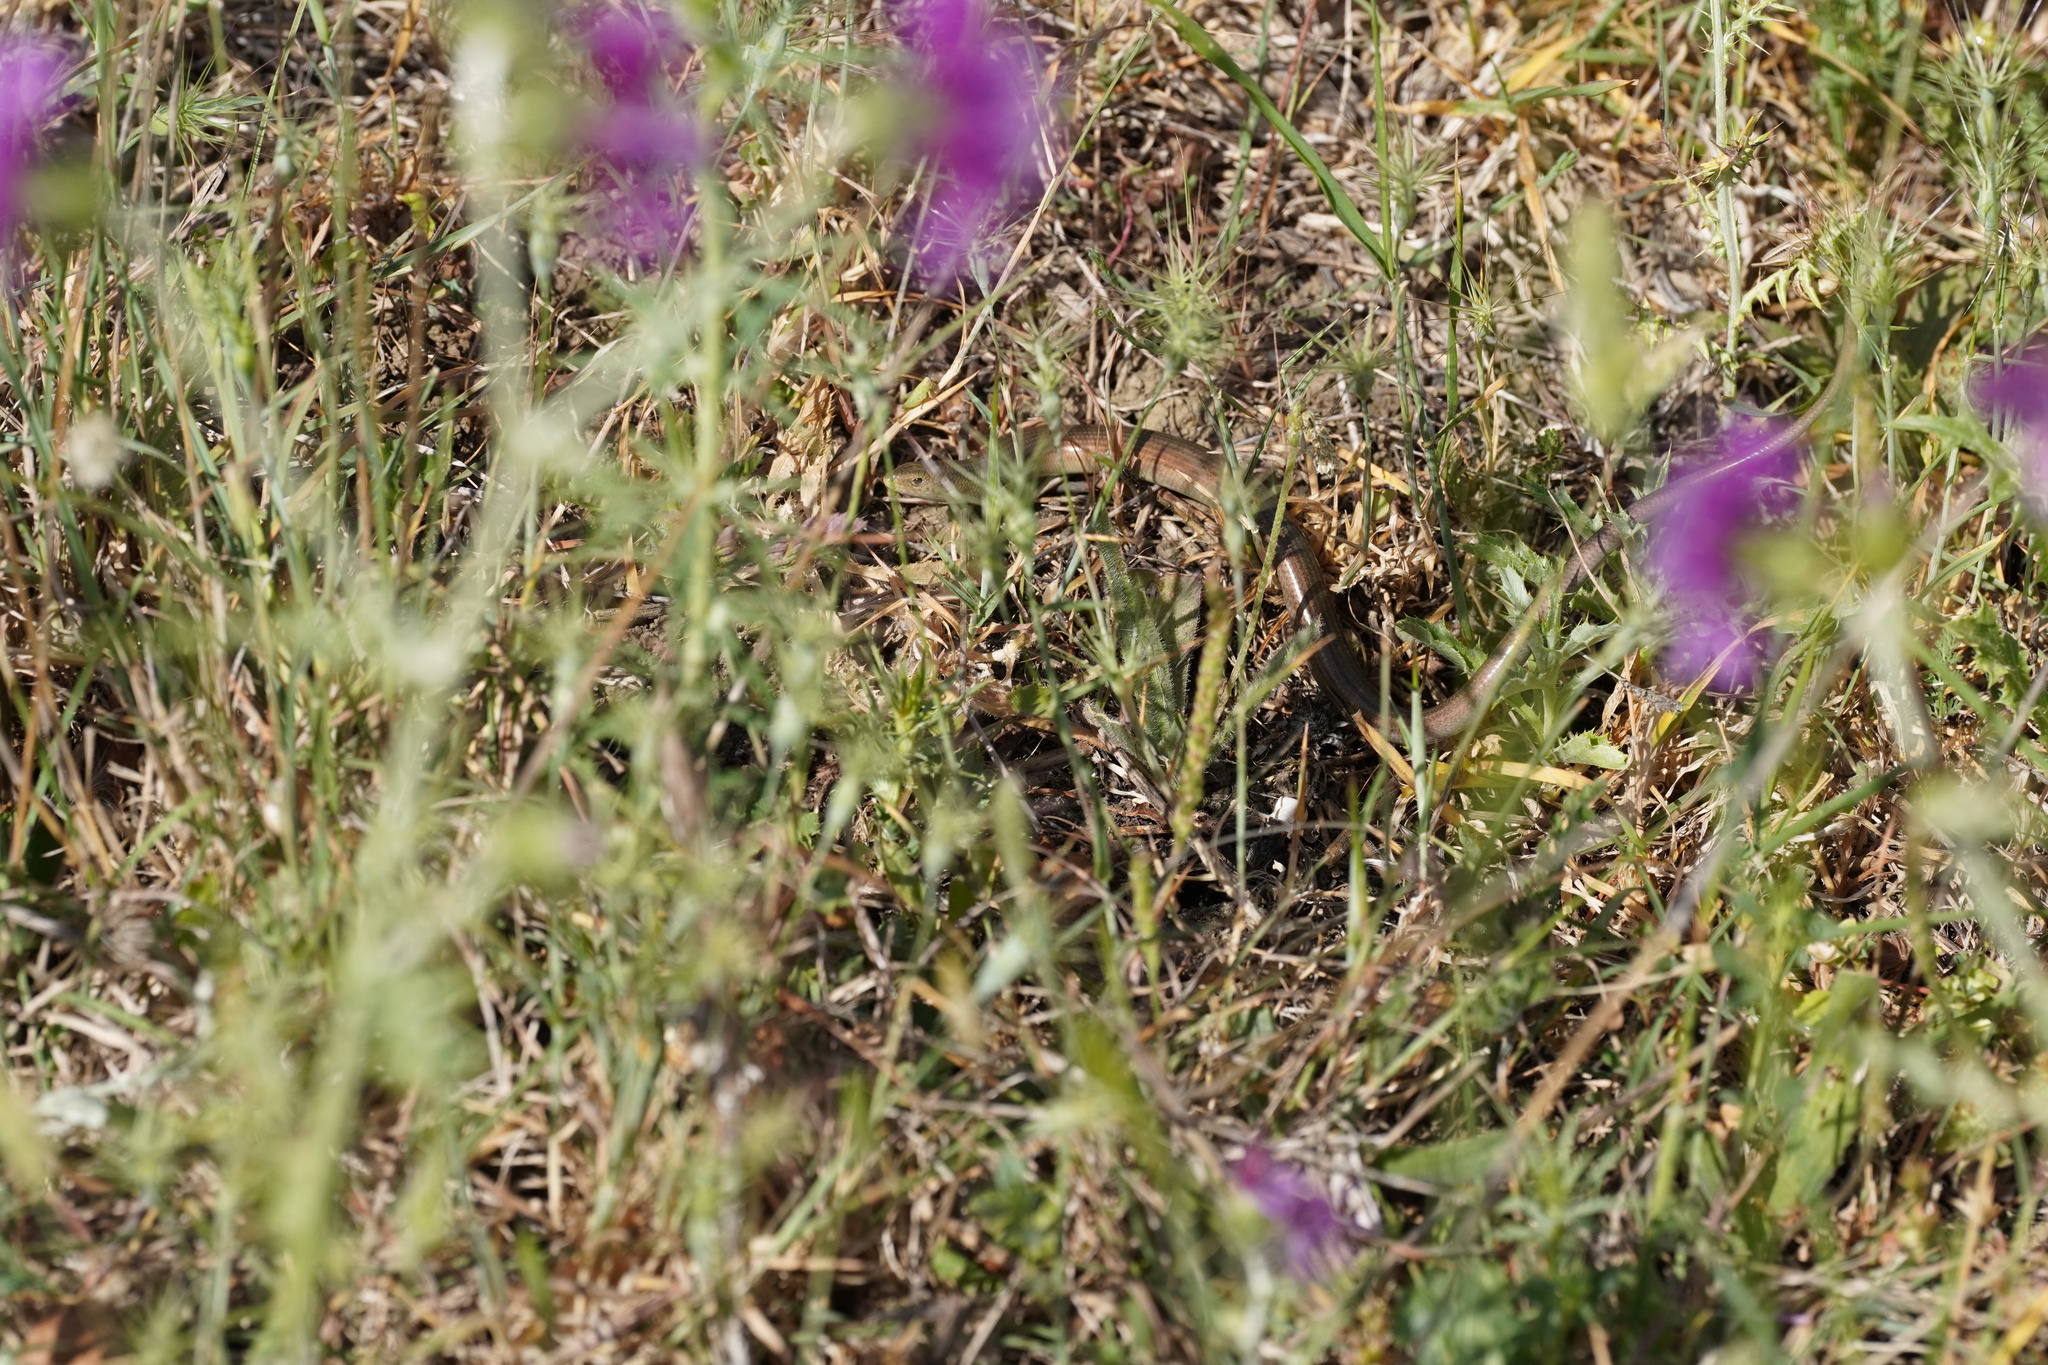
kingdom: Animalia
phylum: Chordata
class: Squamata
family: Scincidae
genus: Chalcides
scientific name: Chalcides striatus
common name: Western (or iberian) three-toed skink
